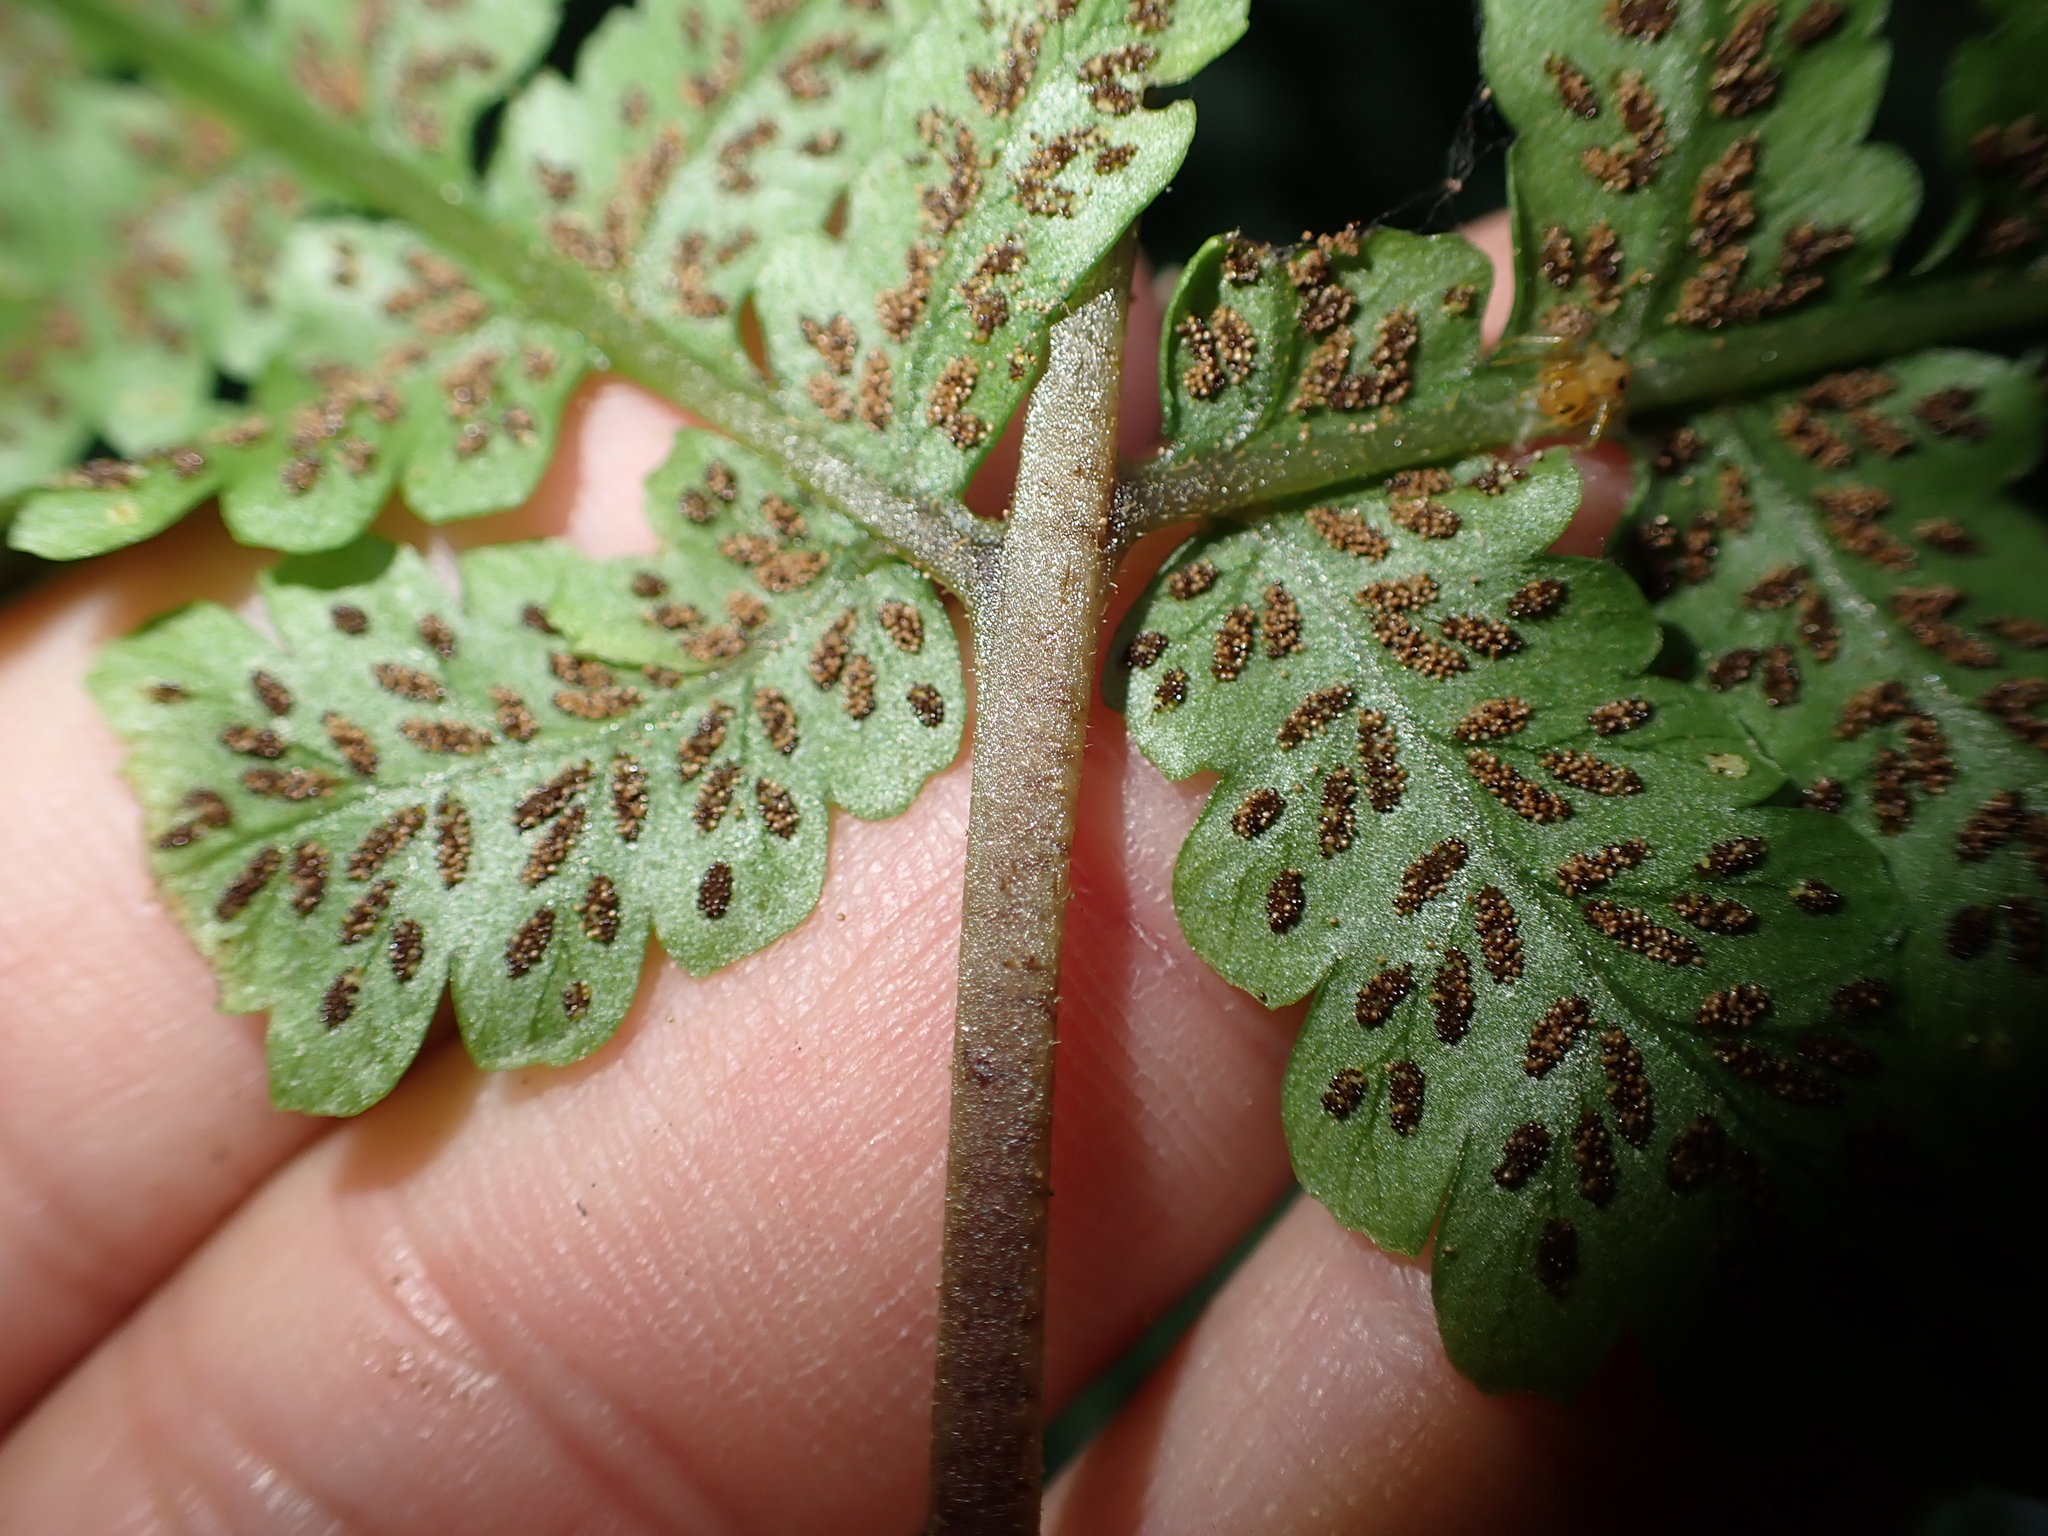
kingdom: Plantae
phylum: Tracheophyta
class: Polypodiopsida
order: Polypodiales
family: Athyriaceae
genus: Cornopteris
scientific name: Cornopteris opaca
